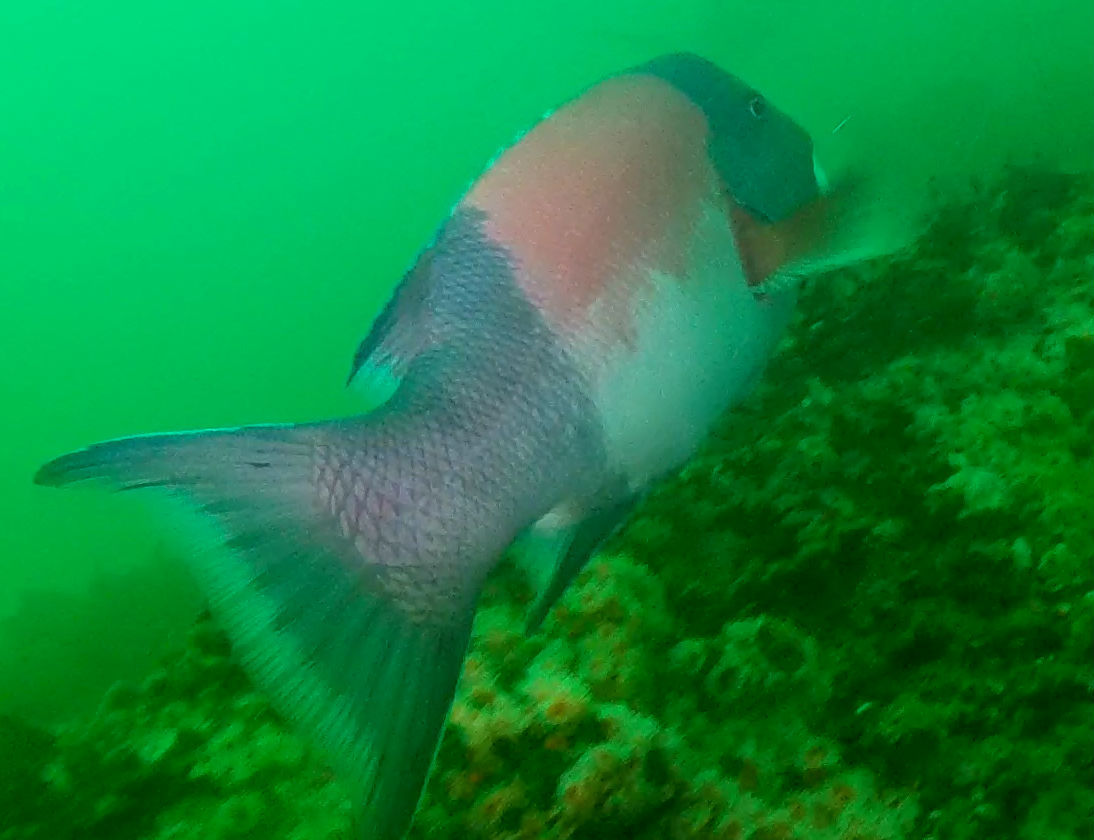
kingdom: Animalia
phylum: Chordata
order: Perciformes
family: Labridae
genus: Semicossyphus
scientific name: Semicossyphus pulcher
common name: California sheephead
